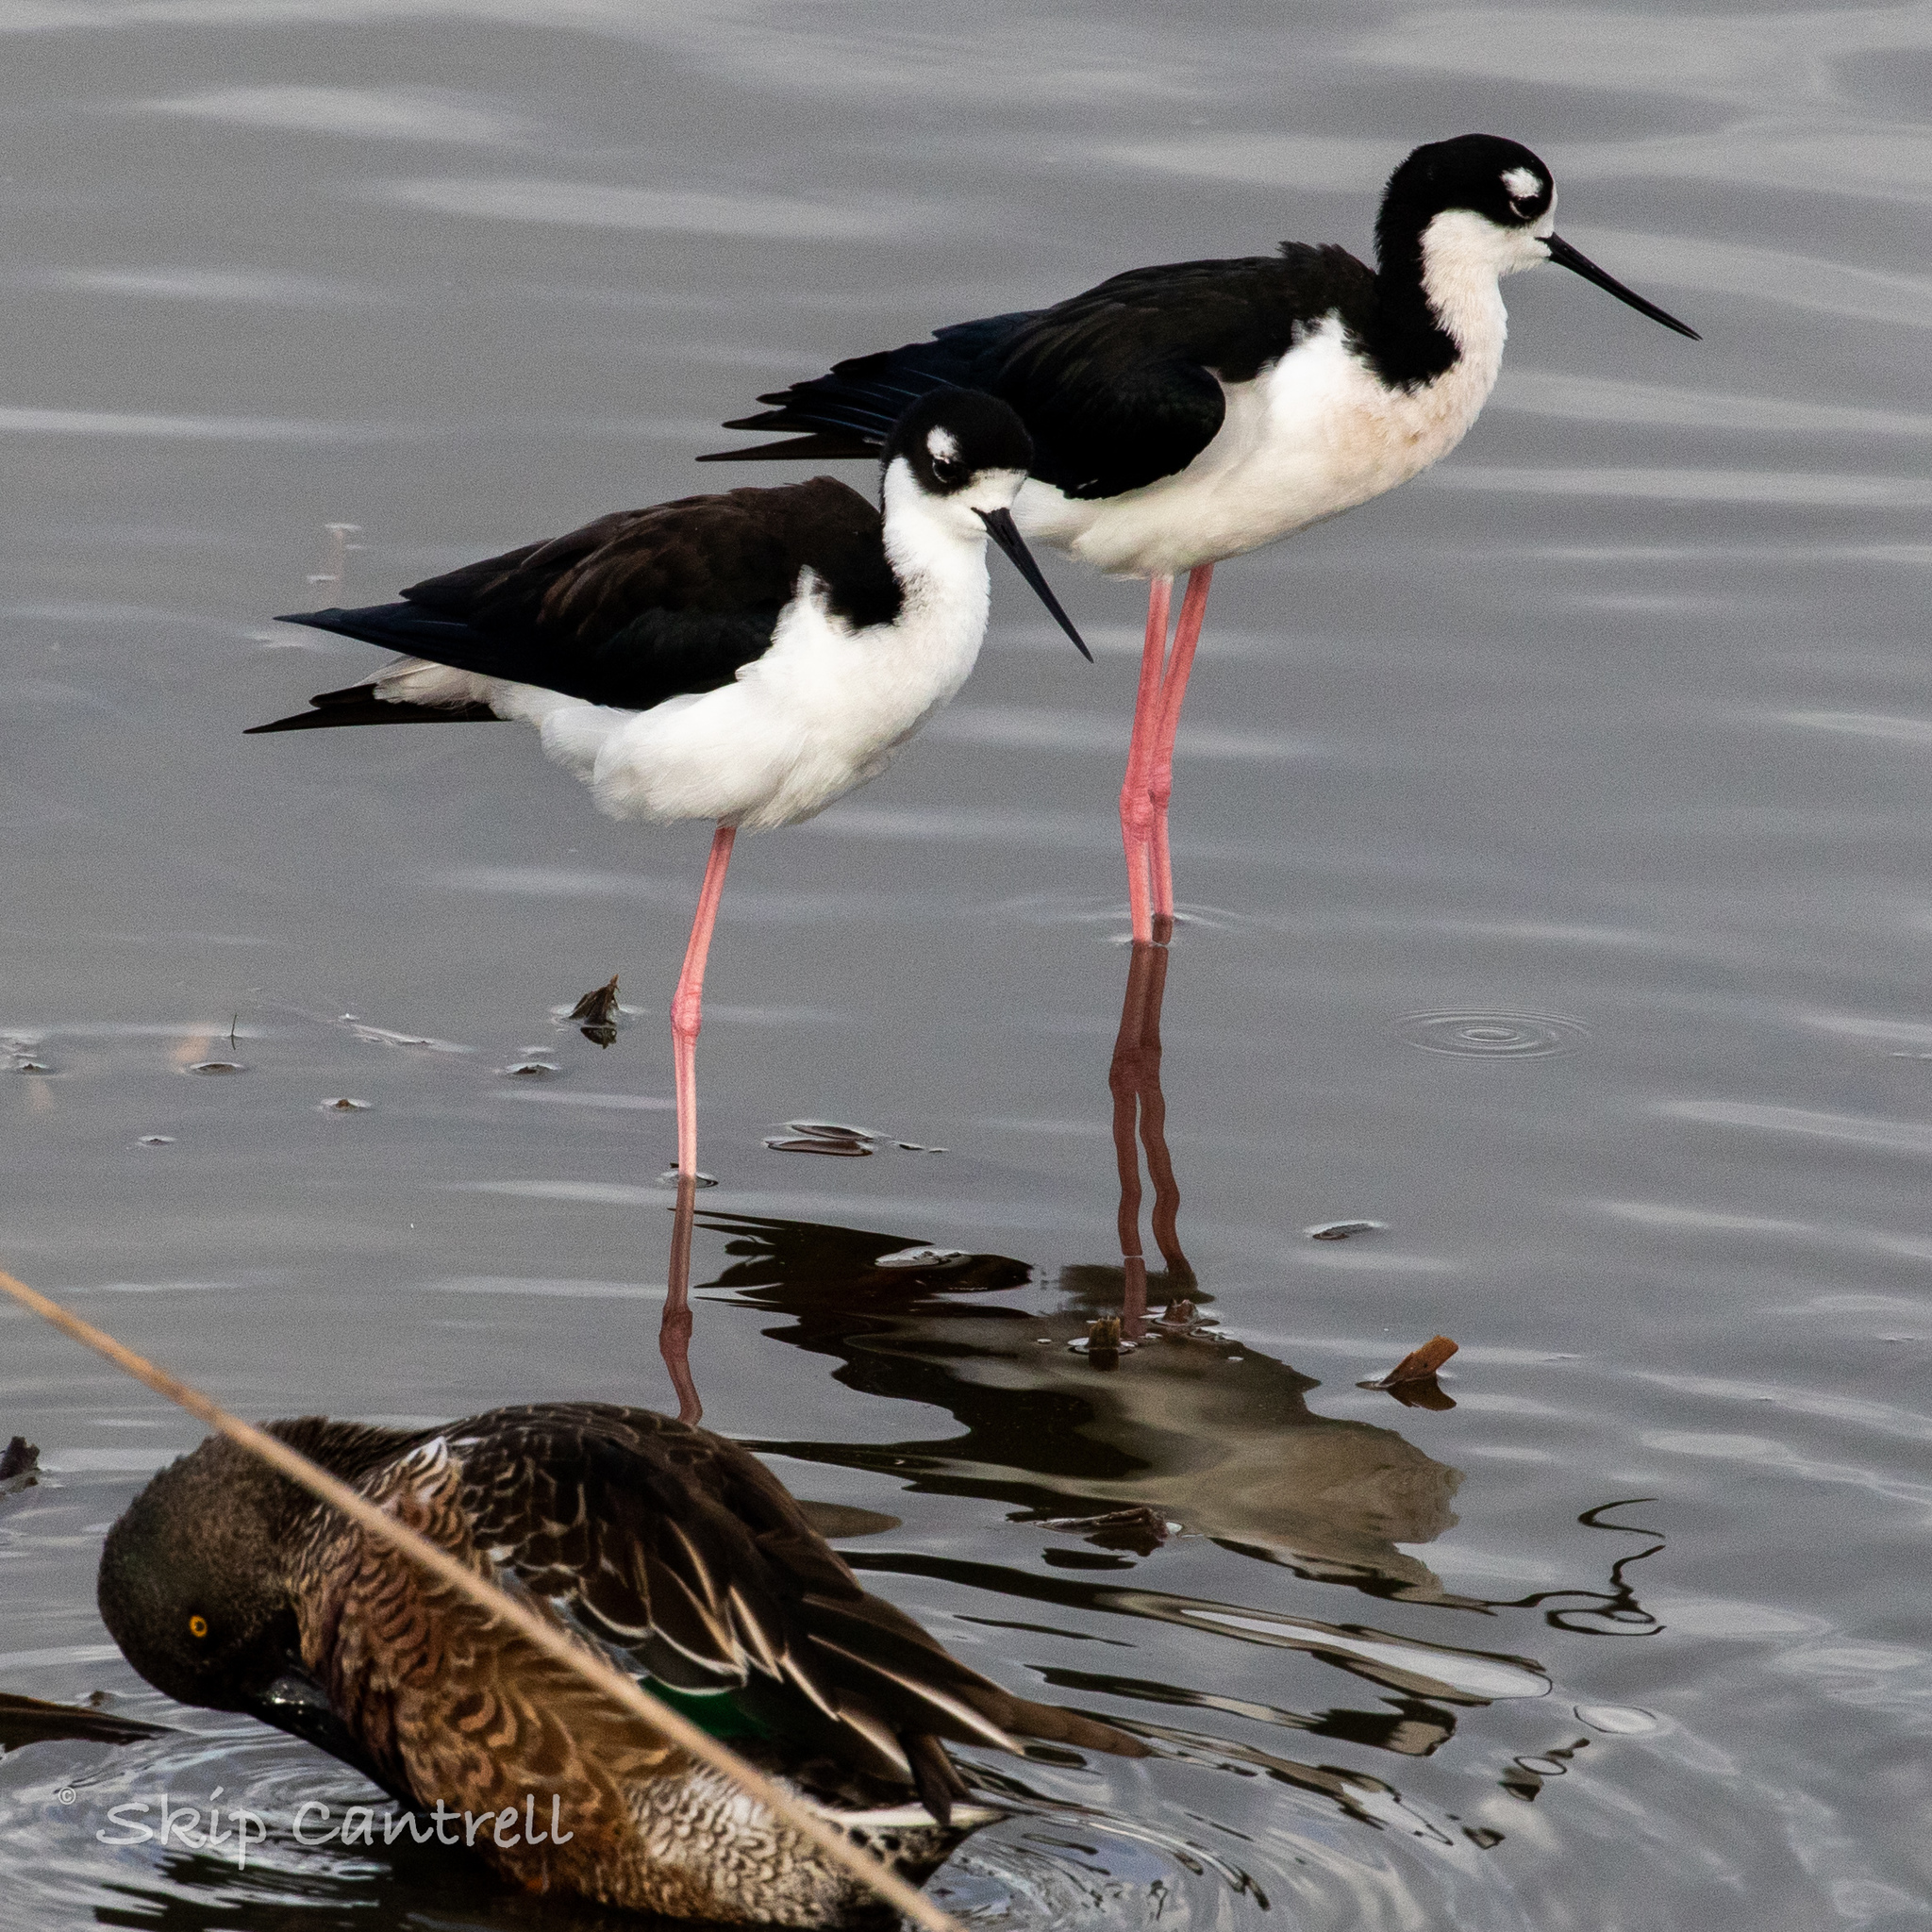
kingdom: Animalia
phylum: Chordata
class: Aves
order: Charadriiformes
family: Recurvirostridae
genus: Himantopus
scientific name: Himantopus mexicanus
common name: Black-necked stilt
